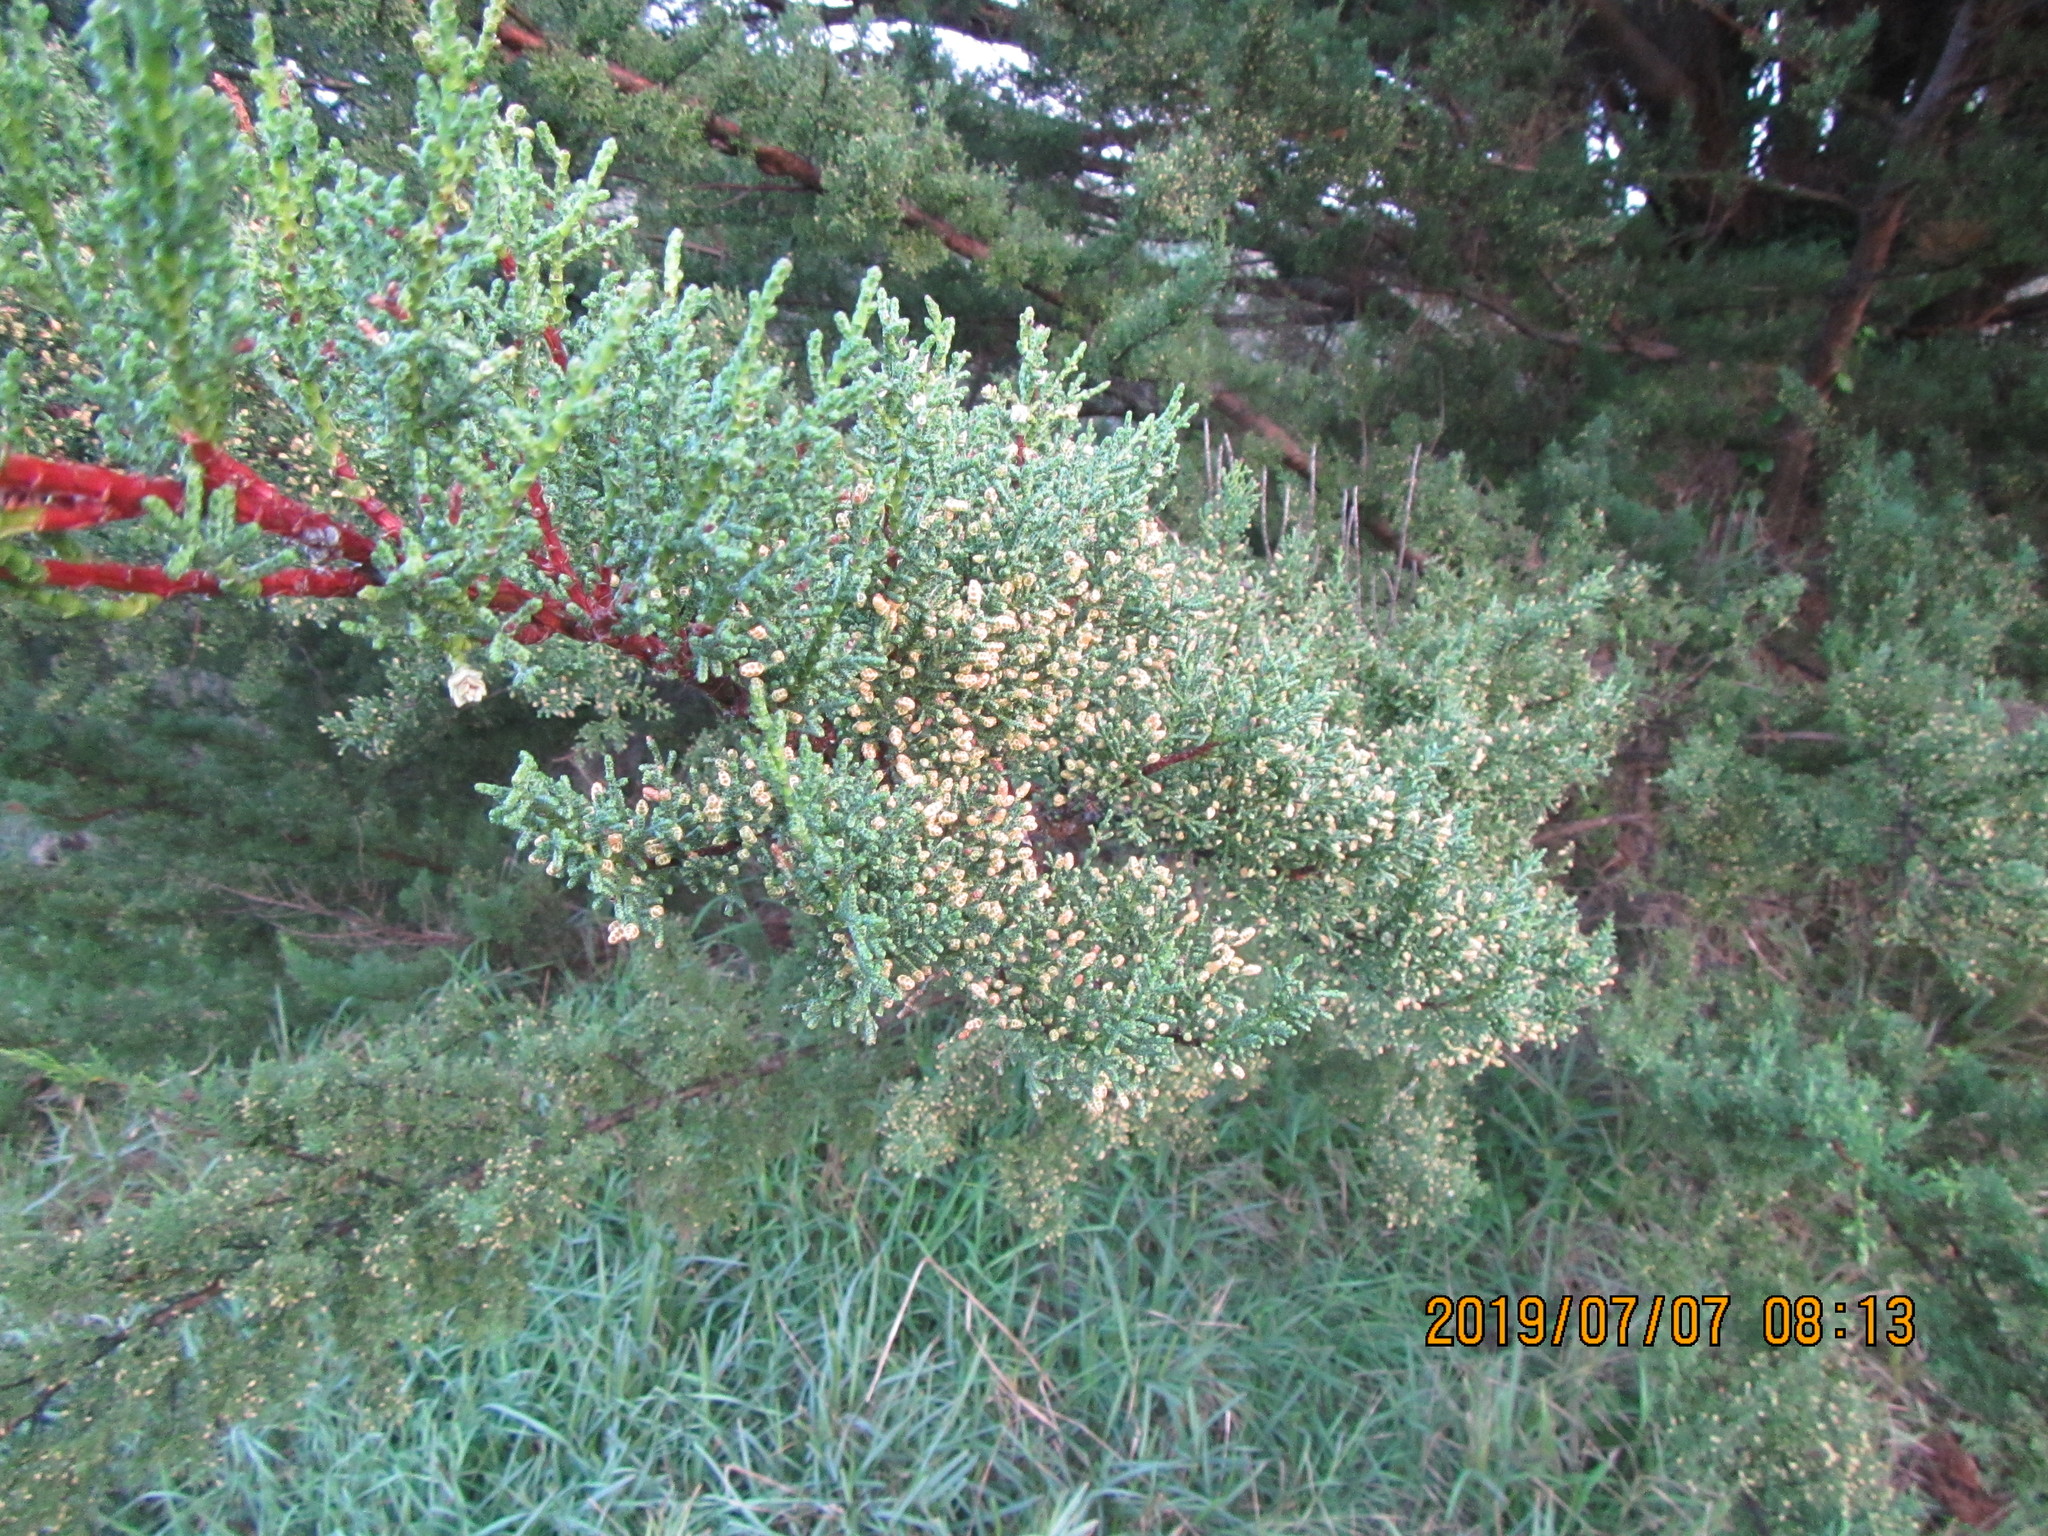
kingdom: Plantae
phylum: Tracheophyta
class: Pinopsida
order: Pinales
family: Cupressaceae
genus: Cupressus
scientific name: Cupressus macrocarpa
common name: Monterey cypress
